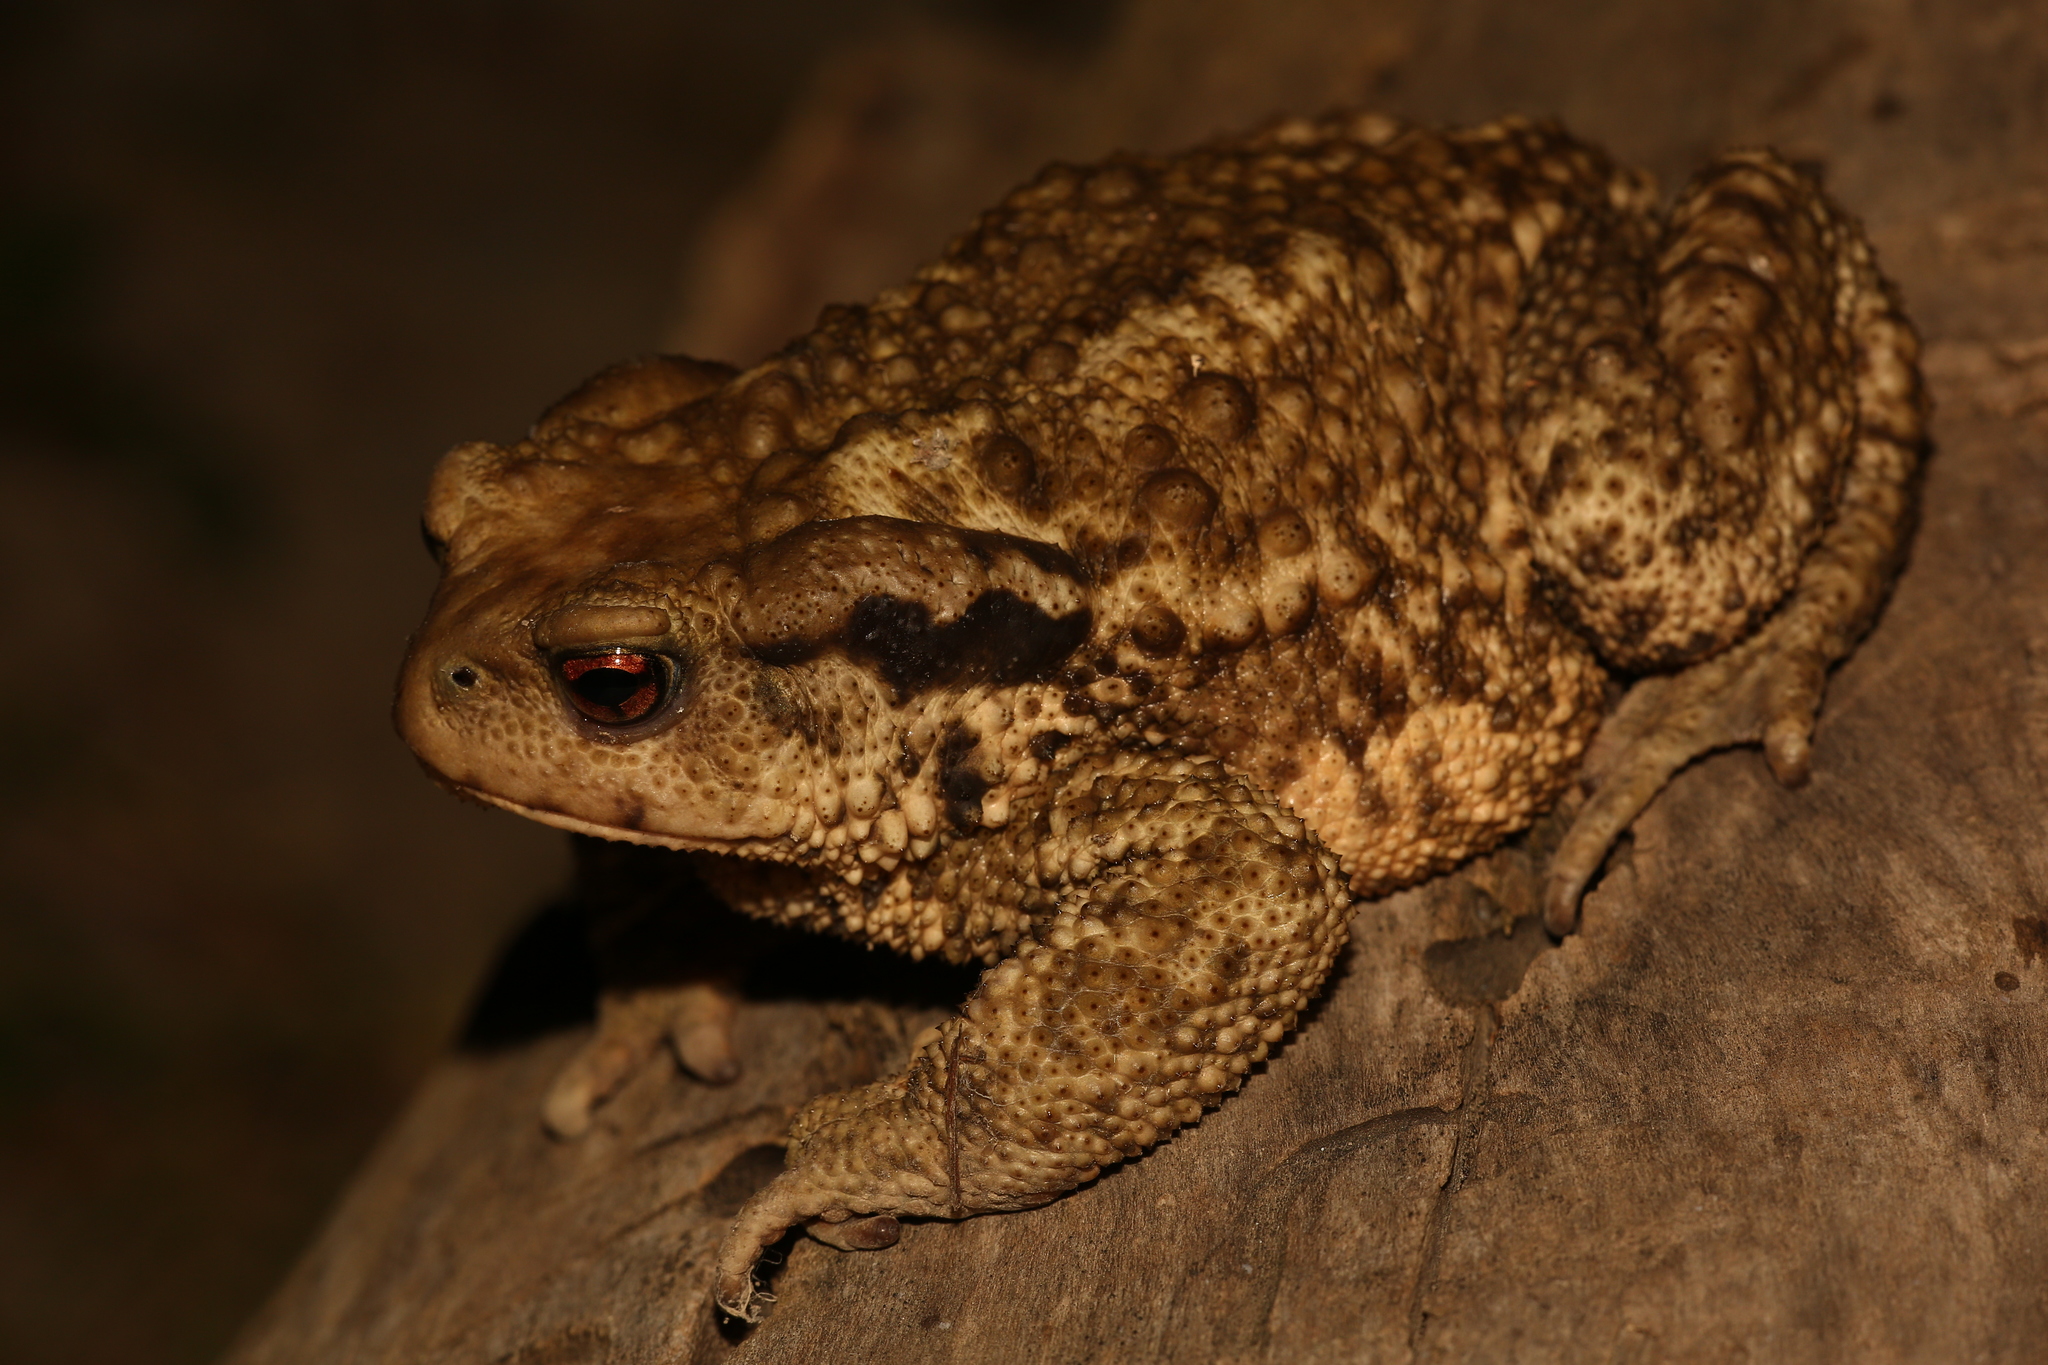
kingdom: Animalia
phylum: Chordata
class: Amphibia
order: Anura
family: Bufonidae
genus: Bufo
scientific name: Bufo spinosus
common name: Western common toad
